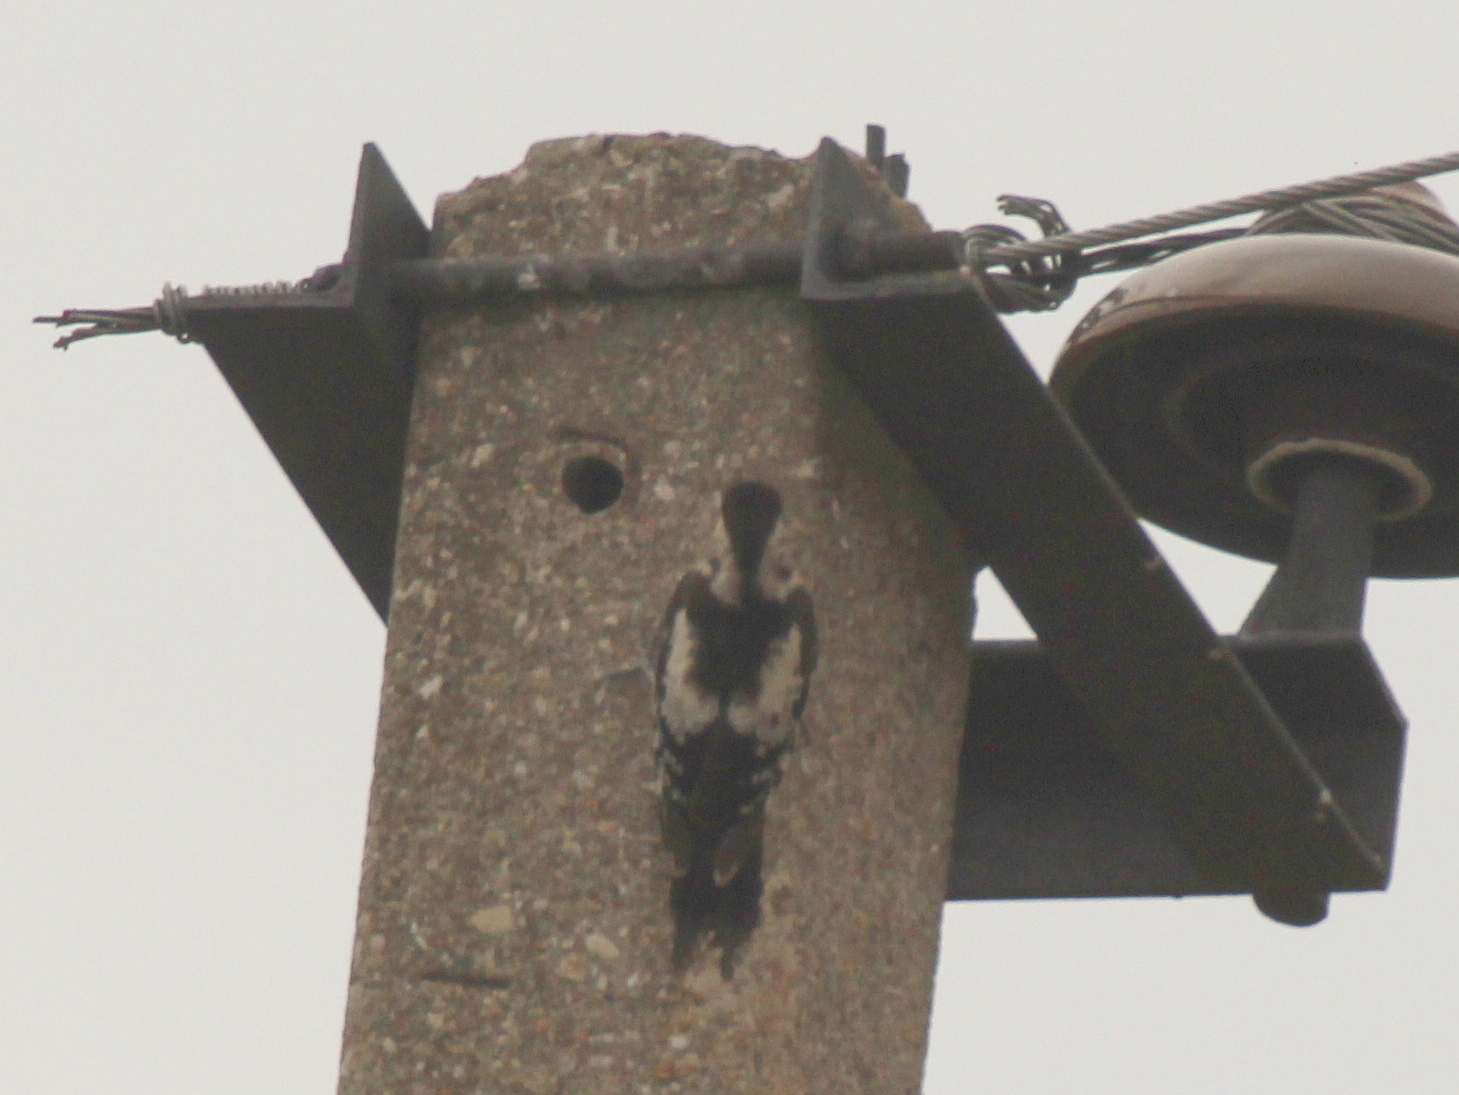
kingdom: Animalia
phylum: Chordata
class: Aves
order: Piciformes
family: Picidae
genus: Dendrocopos
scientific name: Dendrocopos syriacus
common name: Syrian woodpecker
